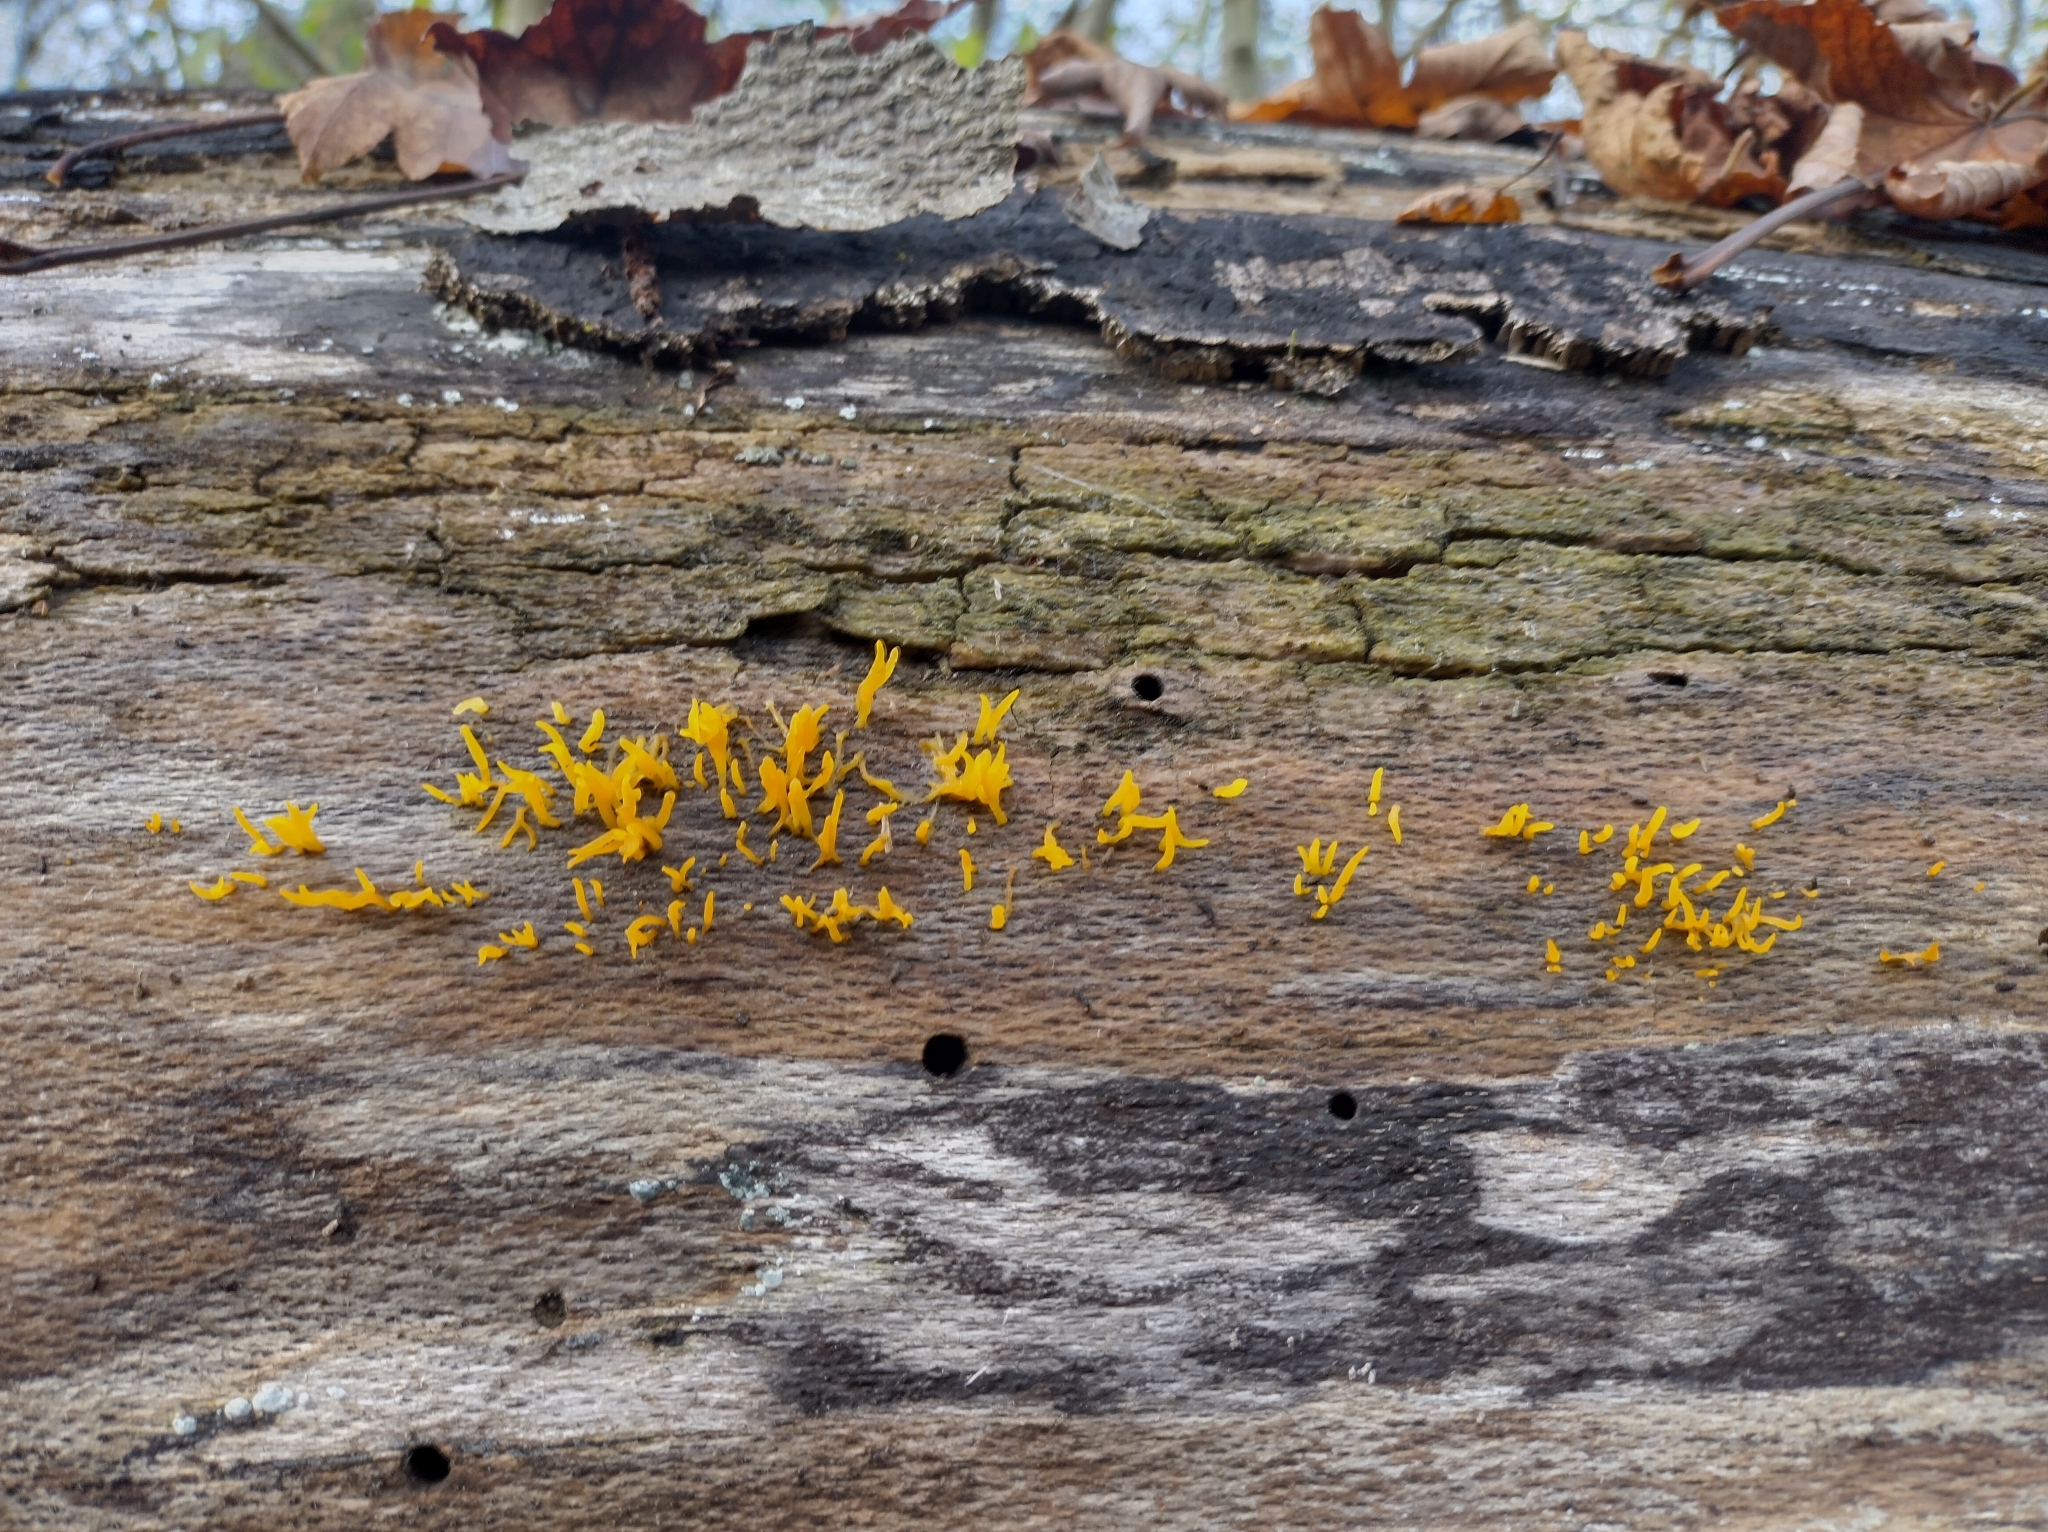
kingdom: Fungi
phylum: Basidiomycota
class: Dacrymycetes
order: Dacrymycetales
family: Dacrymycetaceae
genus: Calocera
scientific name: Calocera cornea
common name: Small stagshorn
